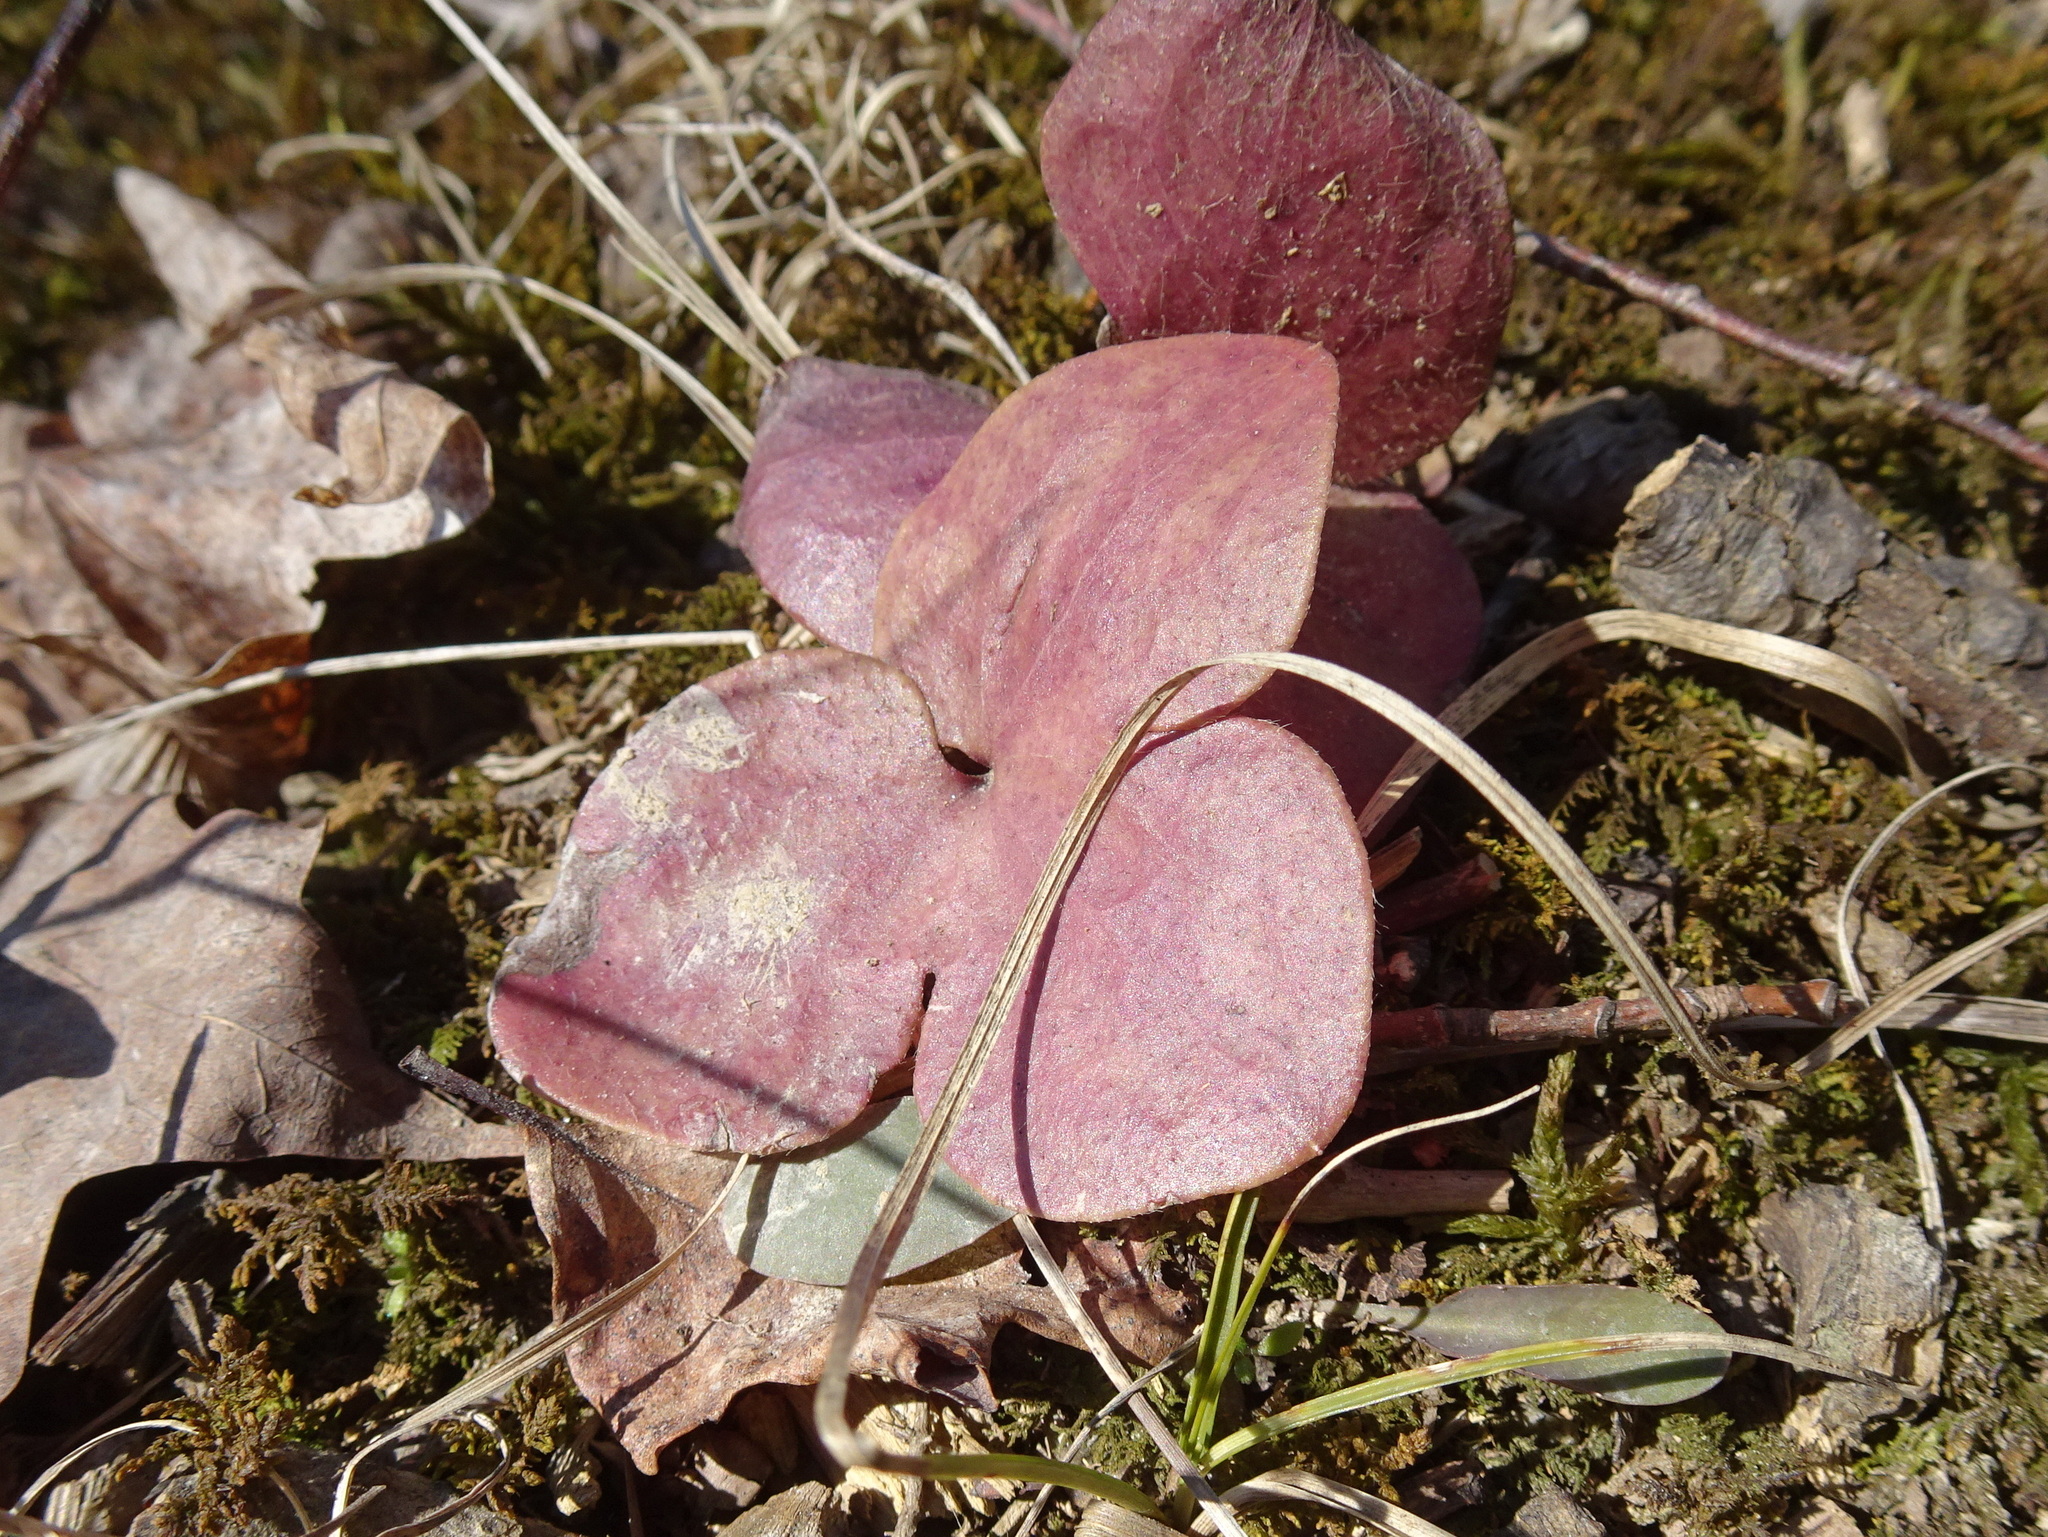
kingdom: Plantae
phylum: Tracheophyta
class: Magnoliopsida
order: Ranunculales
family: Ranunculaceae
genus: Hepatica
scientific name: Hepatica americana
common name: American hepatica
